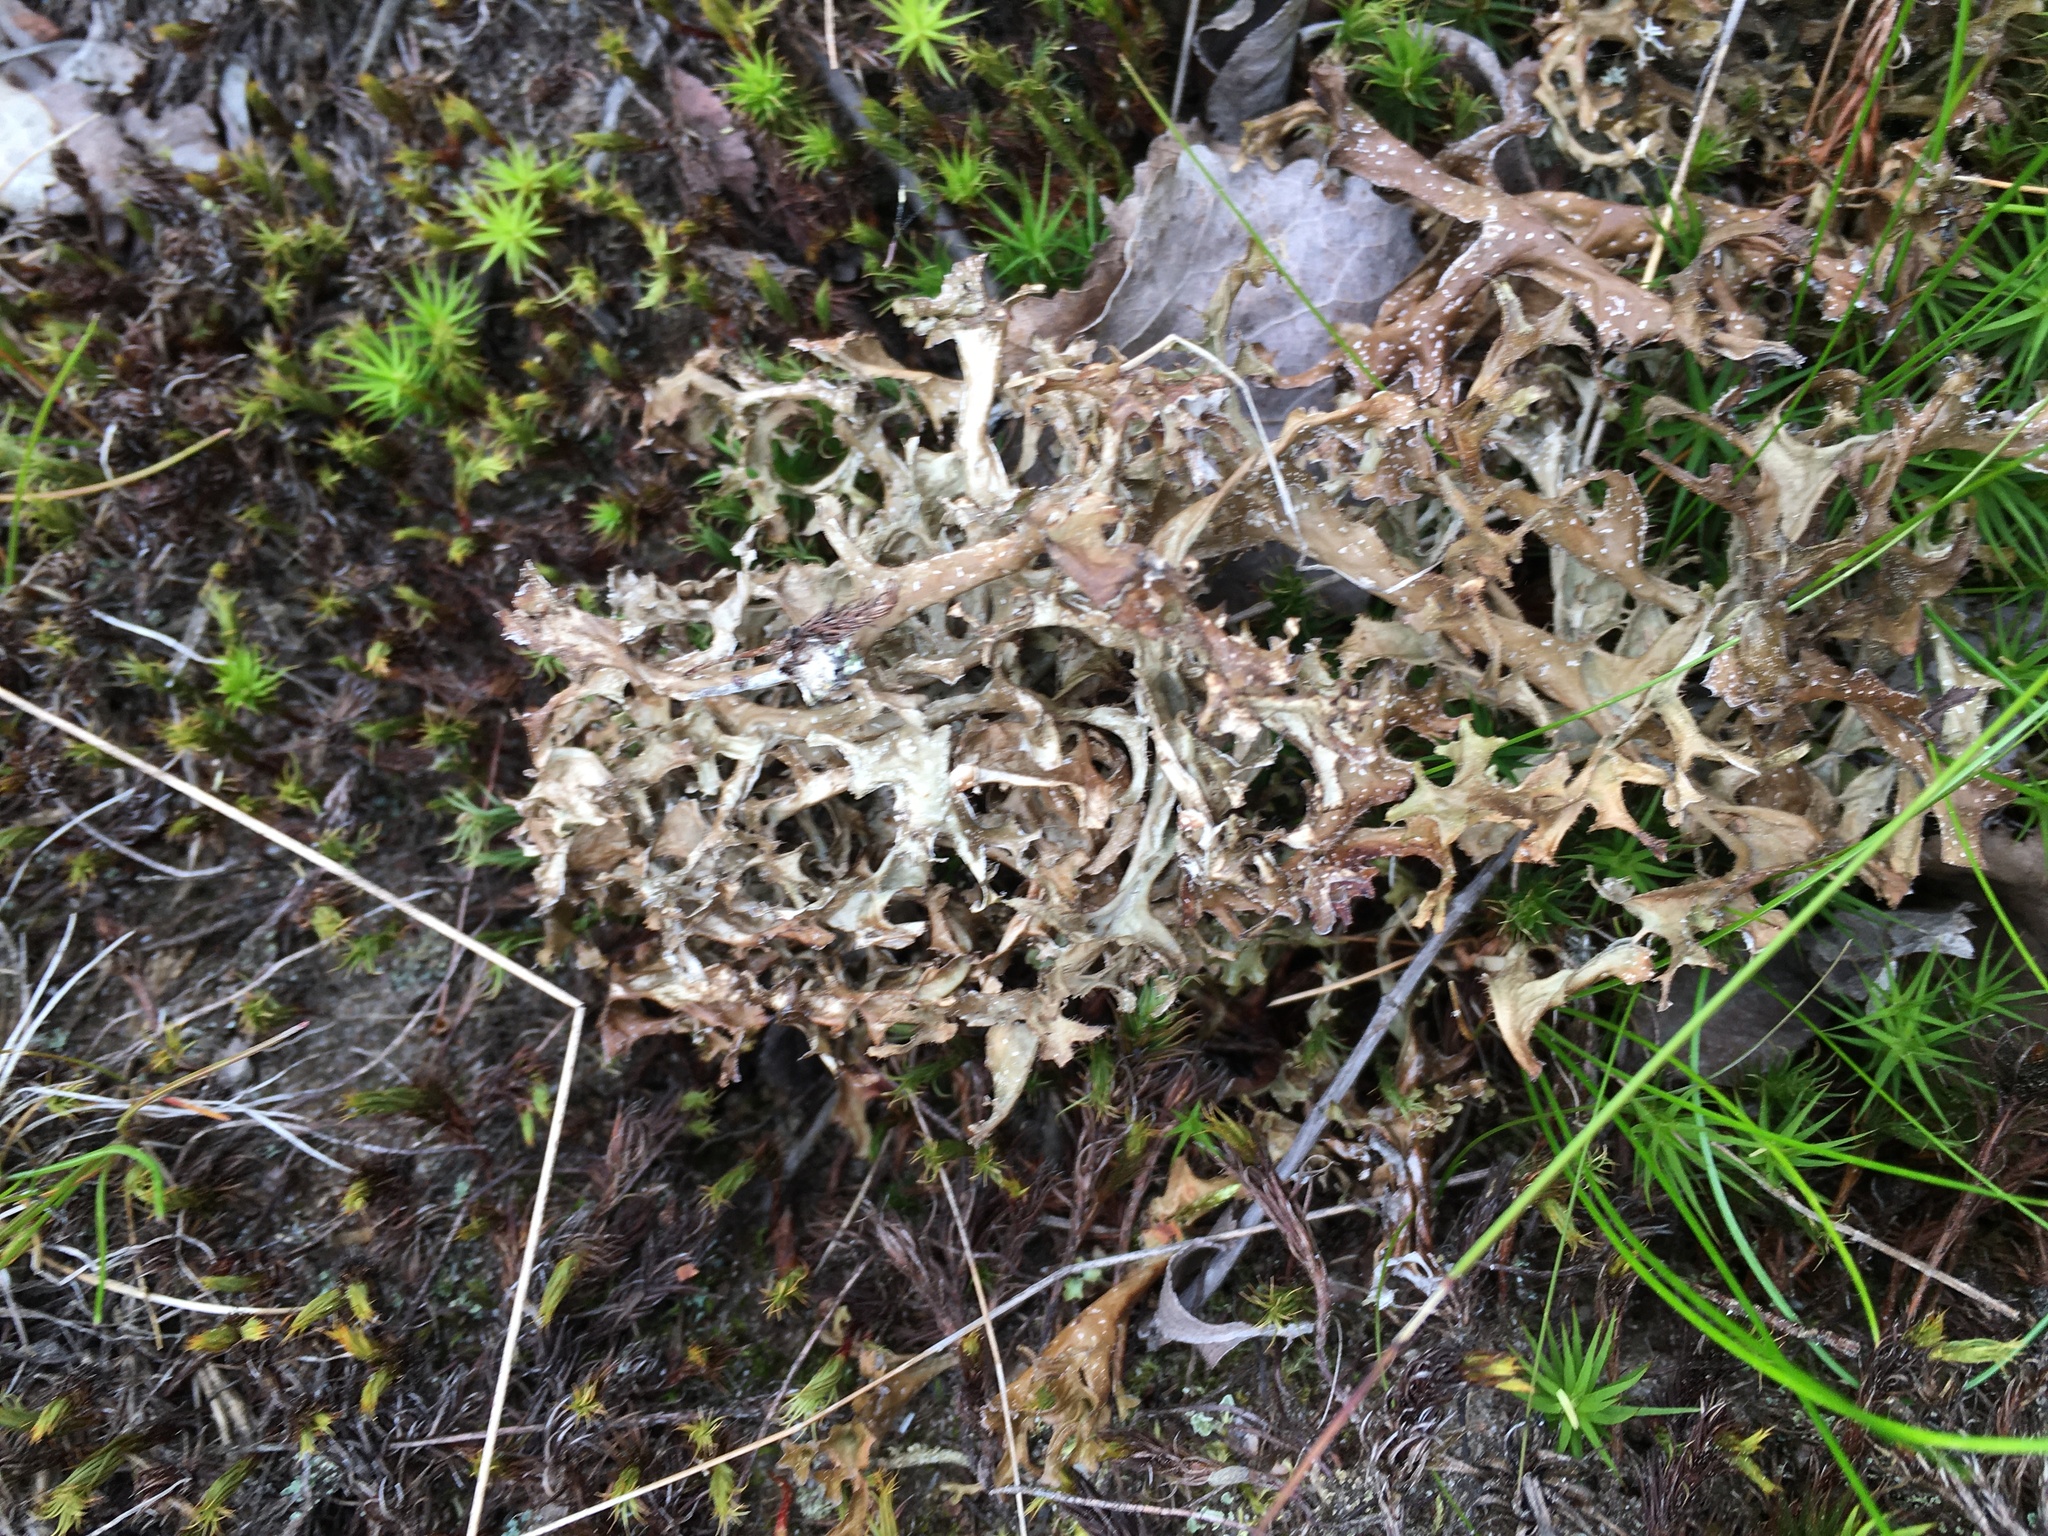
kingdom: Fungi
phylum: Ascomycota
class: Lecanoromycetes
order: Lecanorales
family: Parmeliaceae
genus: Cetraria
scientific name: Cetraria islandica
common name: Iceland lichen
